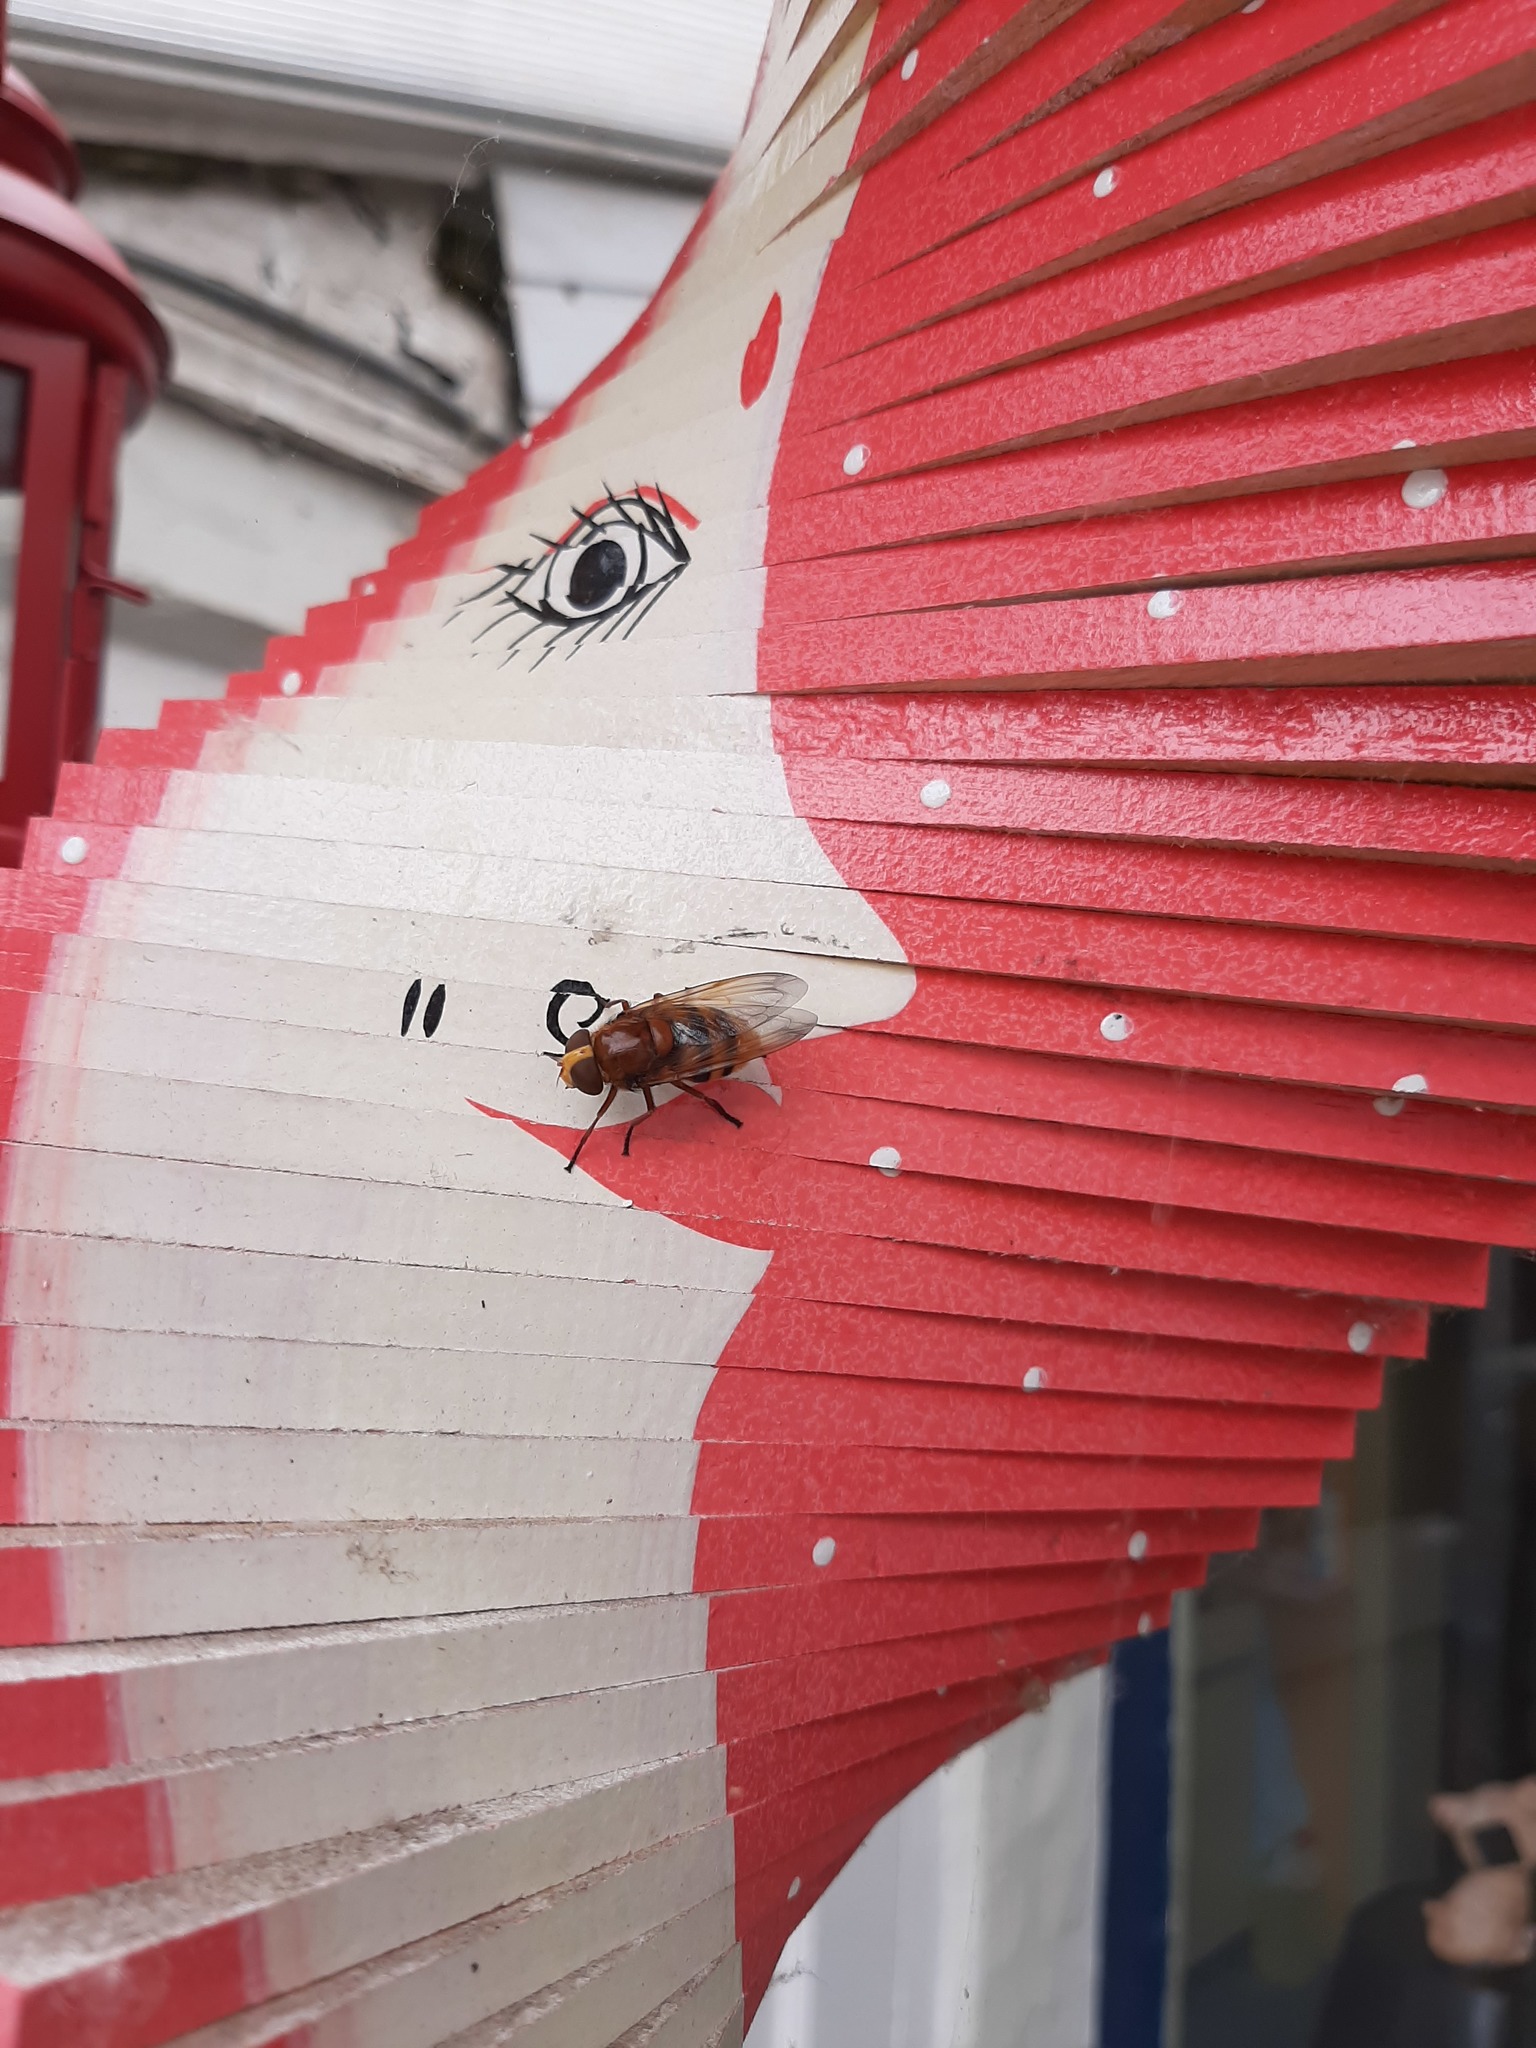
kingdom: Animalia
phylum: Arthropoda
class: Insecta
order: Diptera
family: Syrphidae
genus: Volucella
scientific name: Volucella zonaria
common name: Hornet hoverfly
